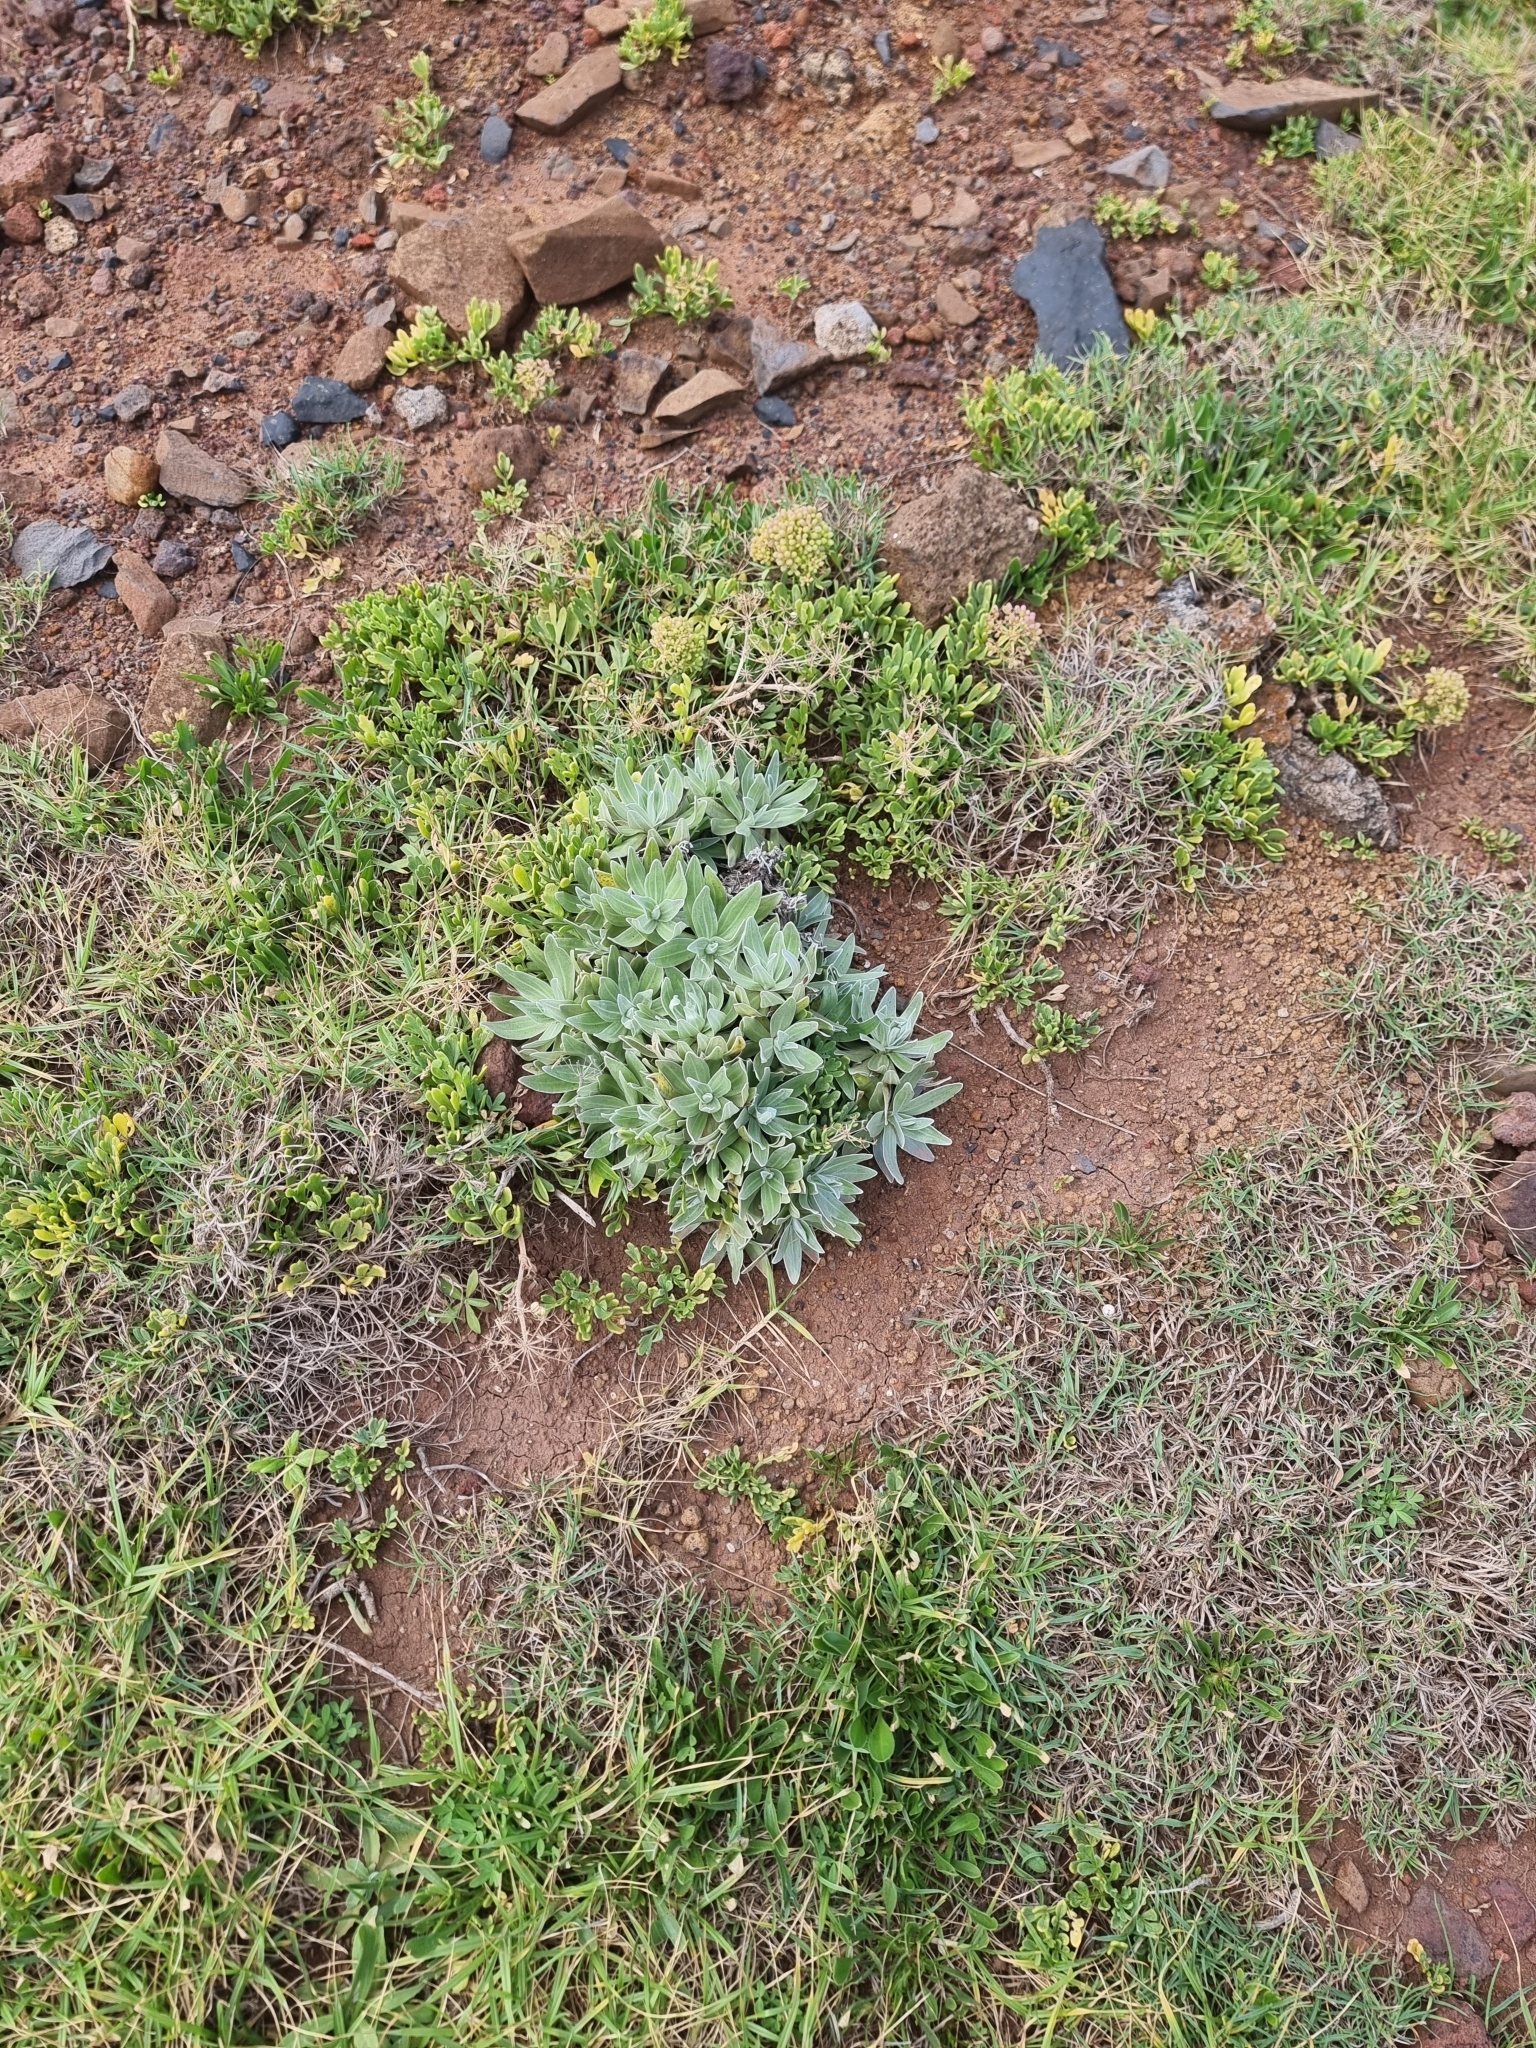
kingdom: Plantae
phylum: Tracheophyta
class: Magnoliopsida
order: Asterales
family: Asteraceae
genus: Helichrysum
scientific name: Helichrysum devium
